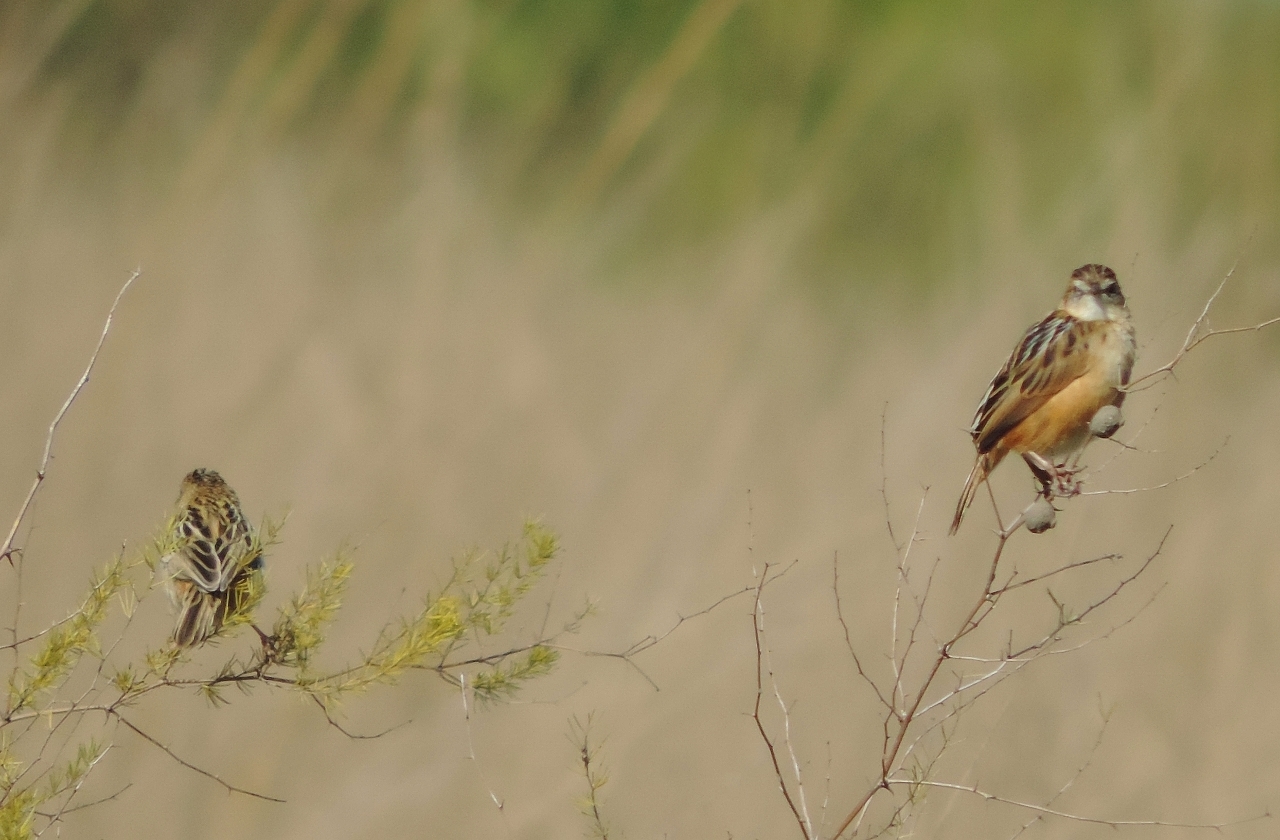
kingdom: Animalia
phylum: Chordata
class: Aves
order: Passeriformes
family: Cisticolidae
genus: Cisticola
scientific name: Cisticola juncidis
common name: Zitting cisticola
